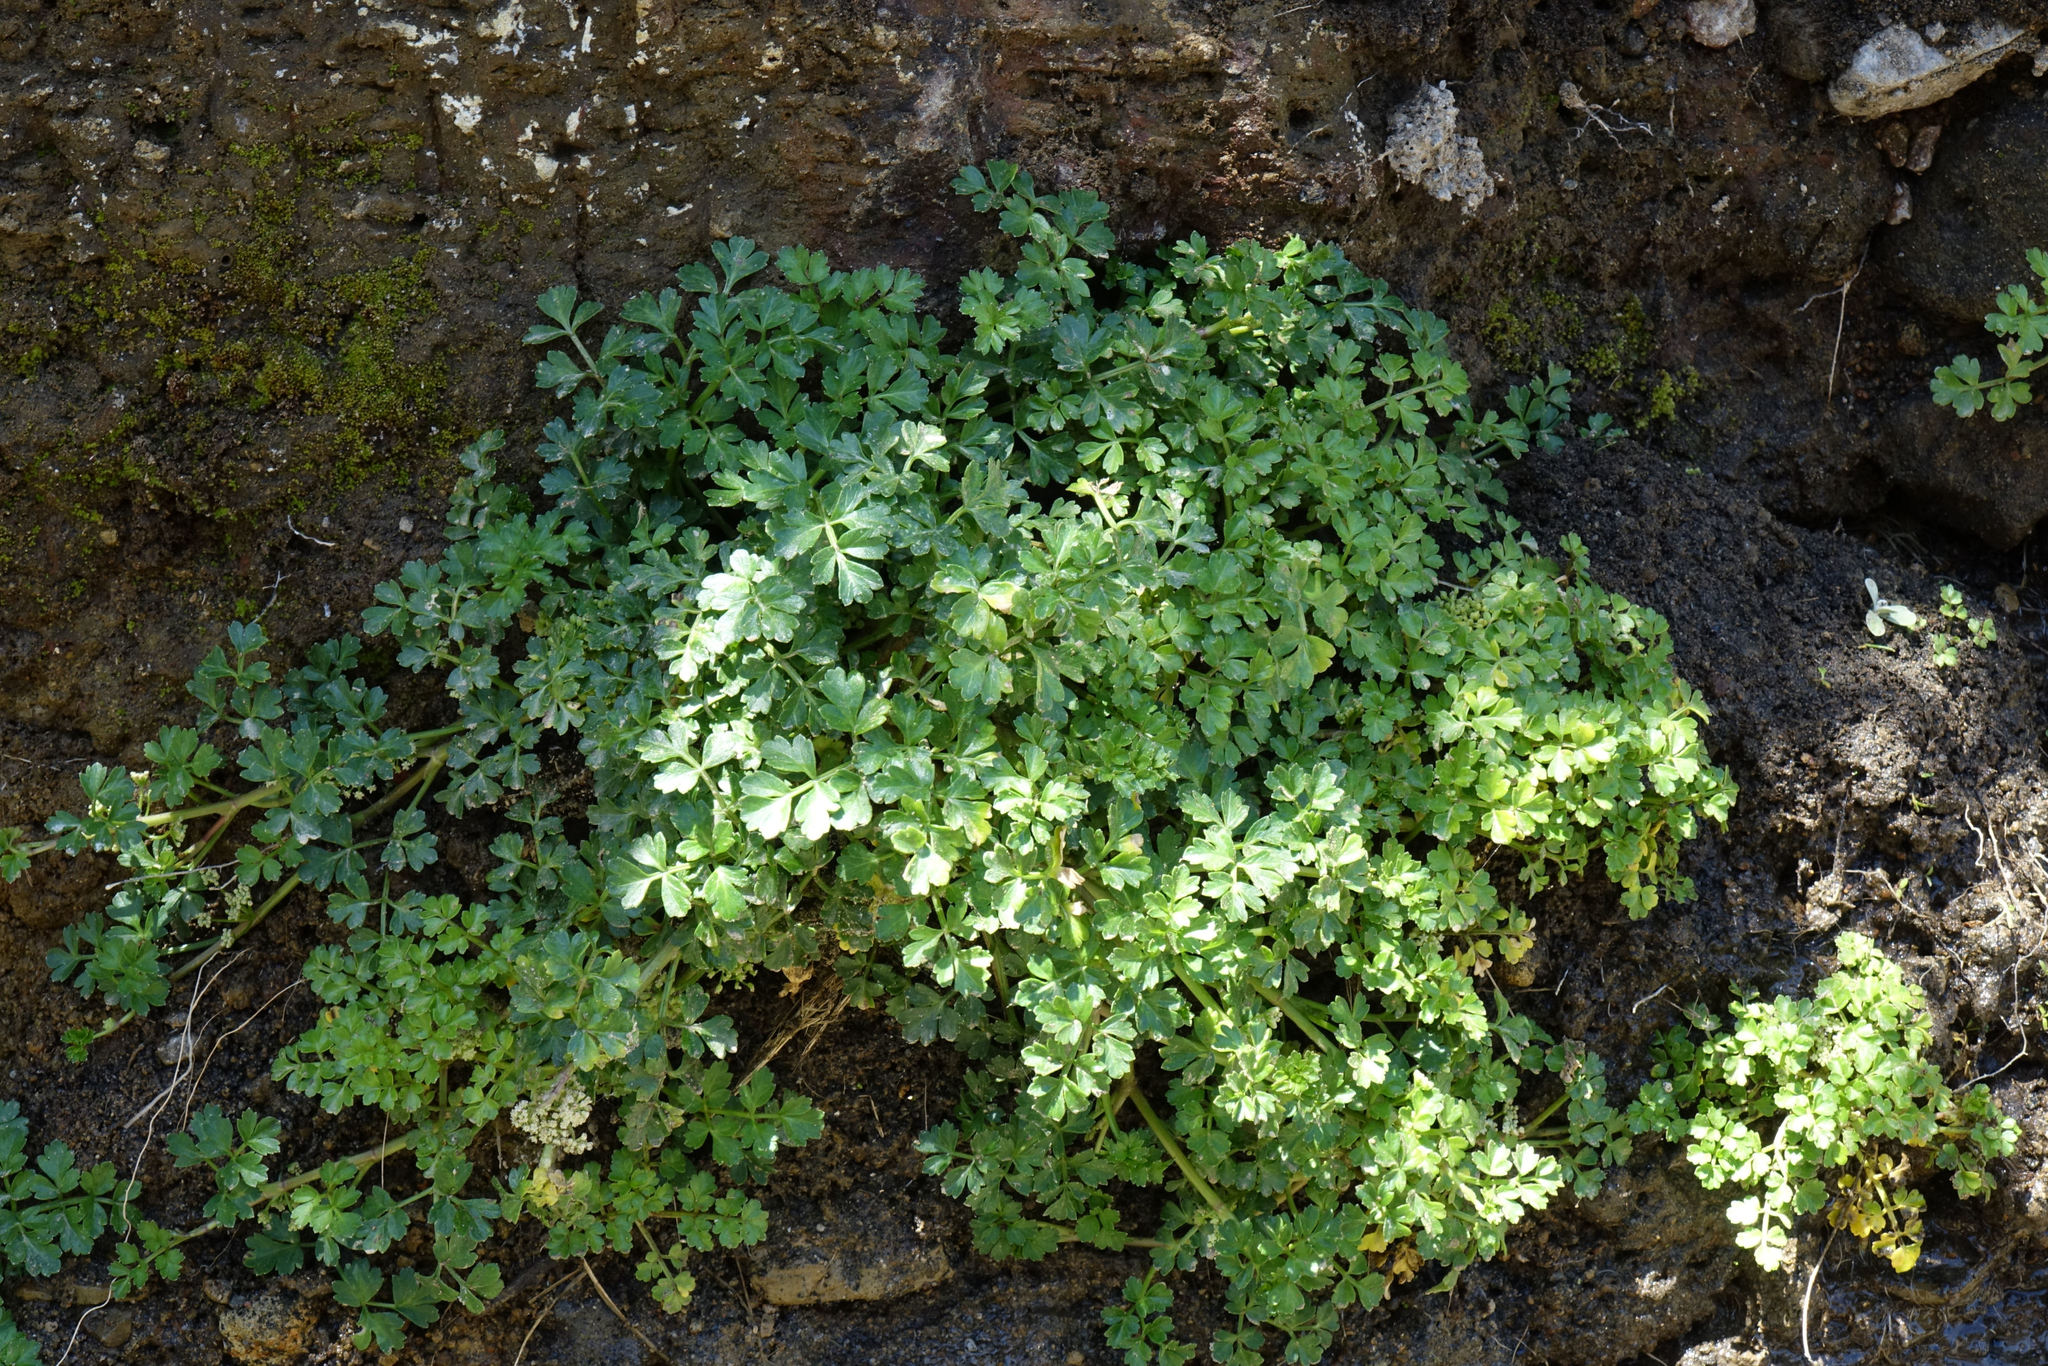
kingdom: Plantae
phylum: Tracheophyta
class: Magnoliopsida
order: Apiales
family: Apiaceae
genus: Apium
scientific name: Apium prostratum
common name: Prostrate marshwort
